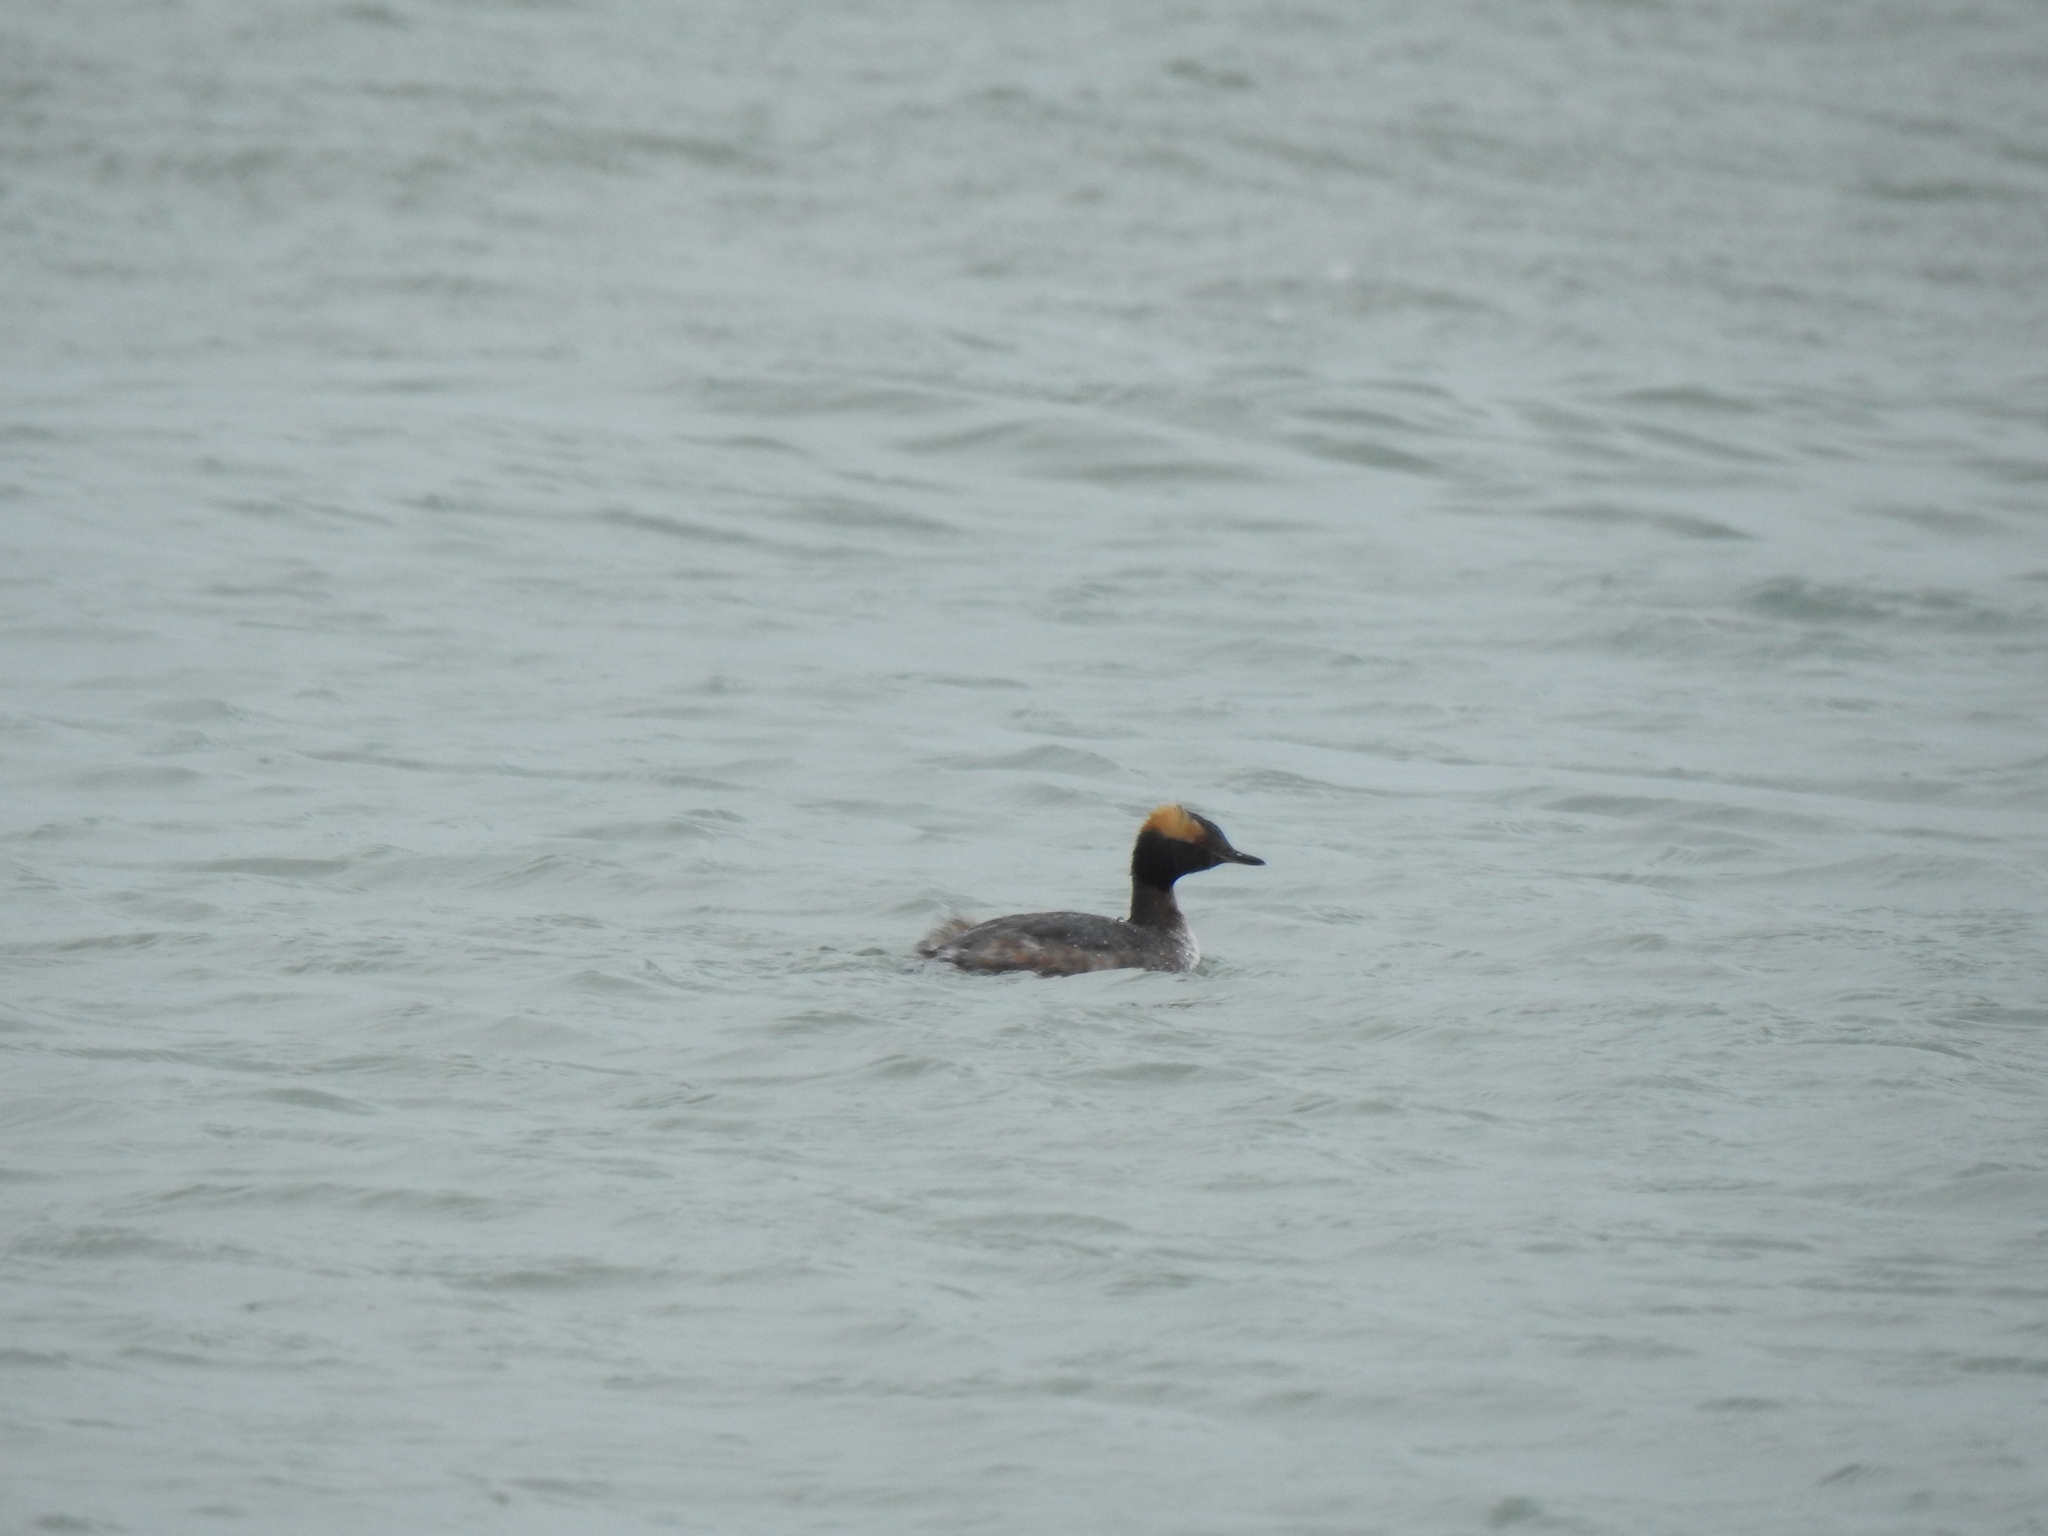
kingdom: Animalia
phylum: Chordata
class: Aves
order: Podicipediformes
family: Podicipedidae
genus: Podiceps
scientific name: Podiceps auritus
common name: Horned grebe
